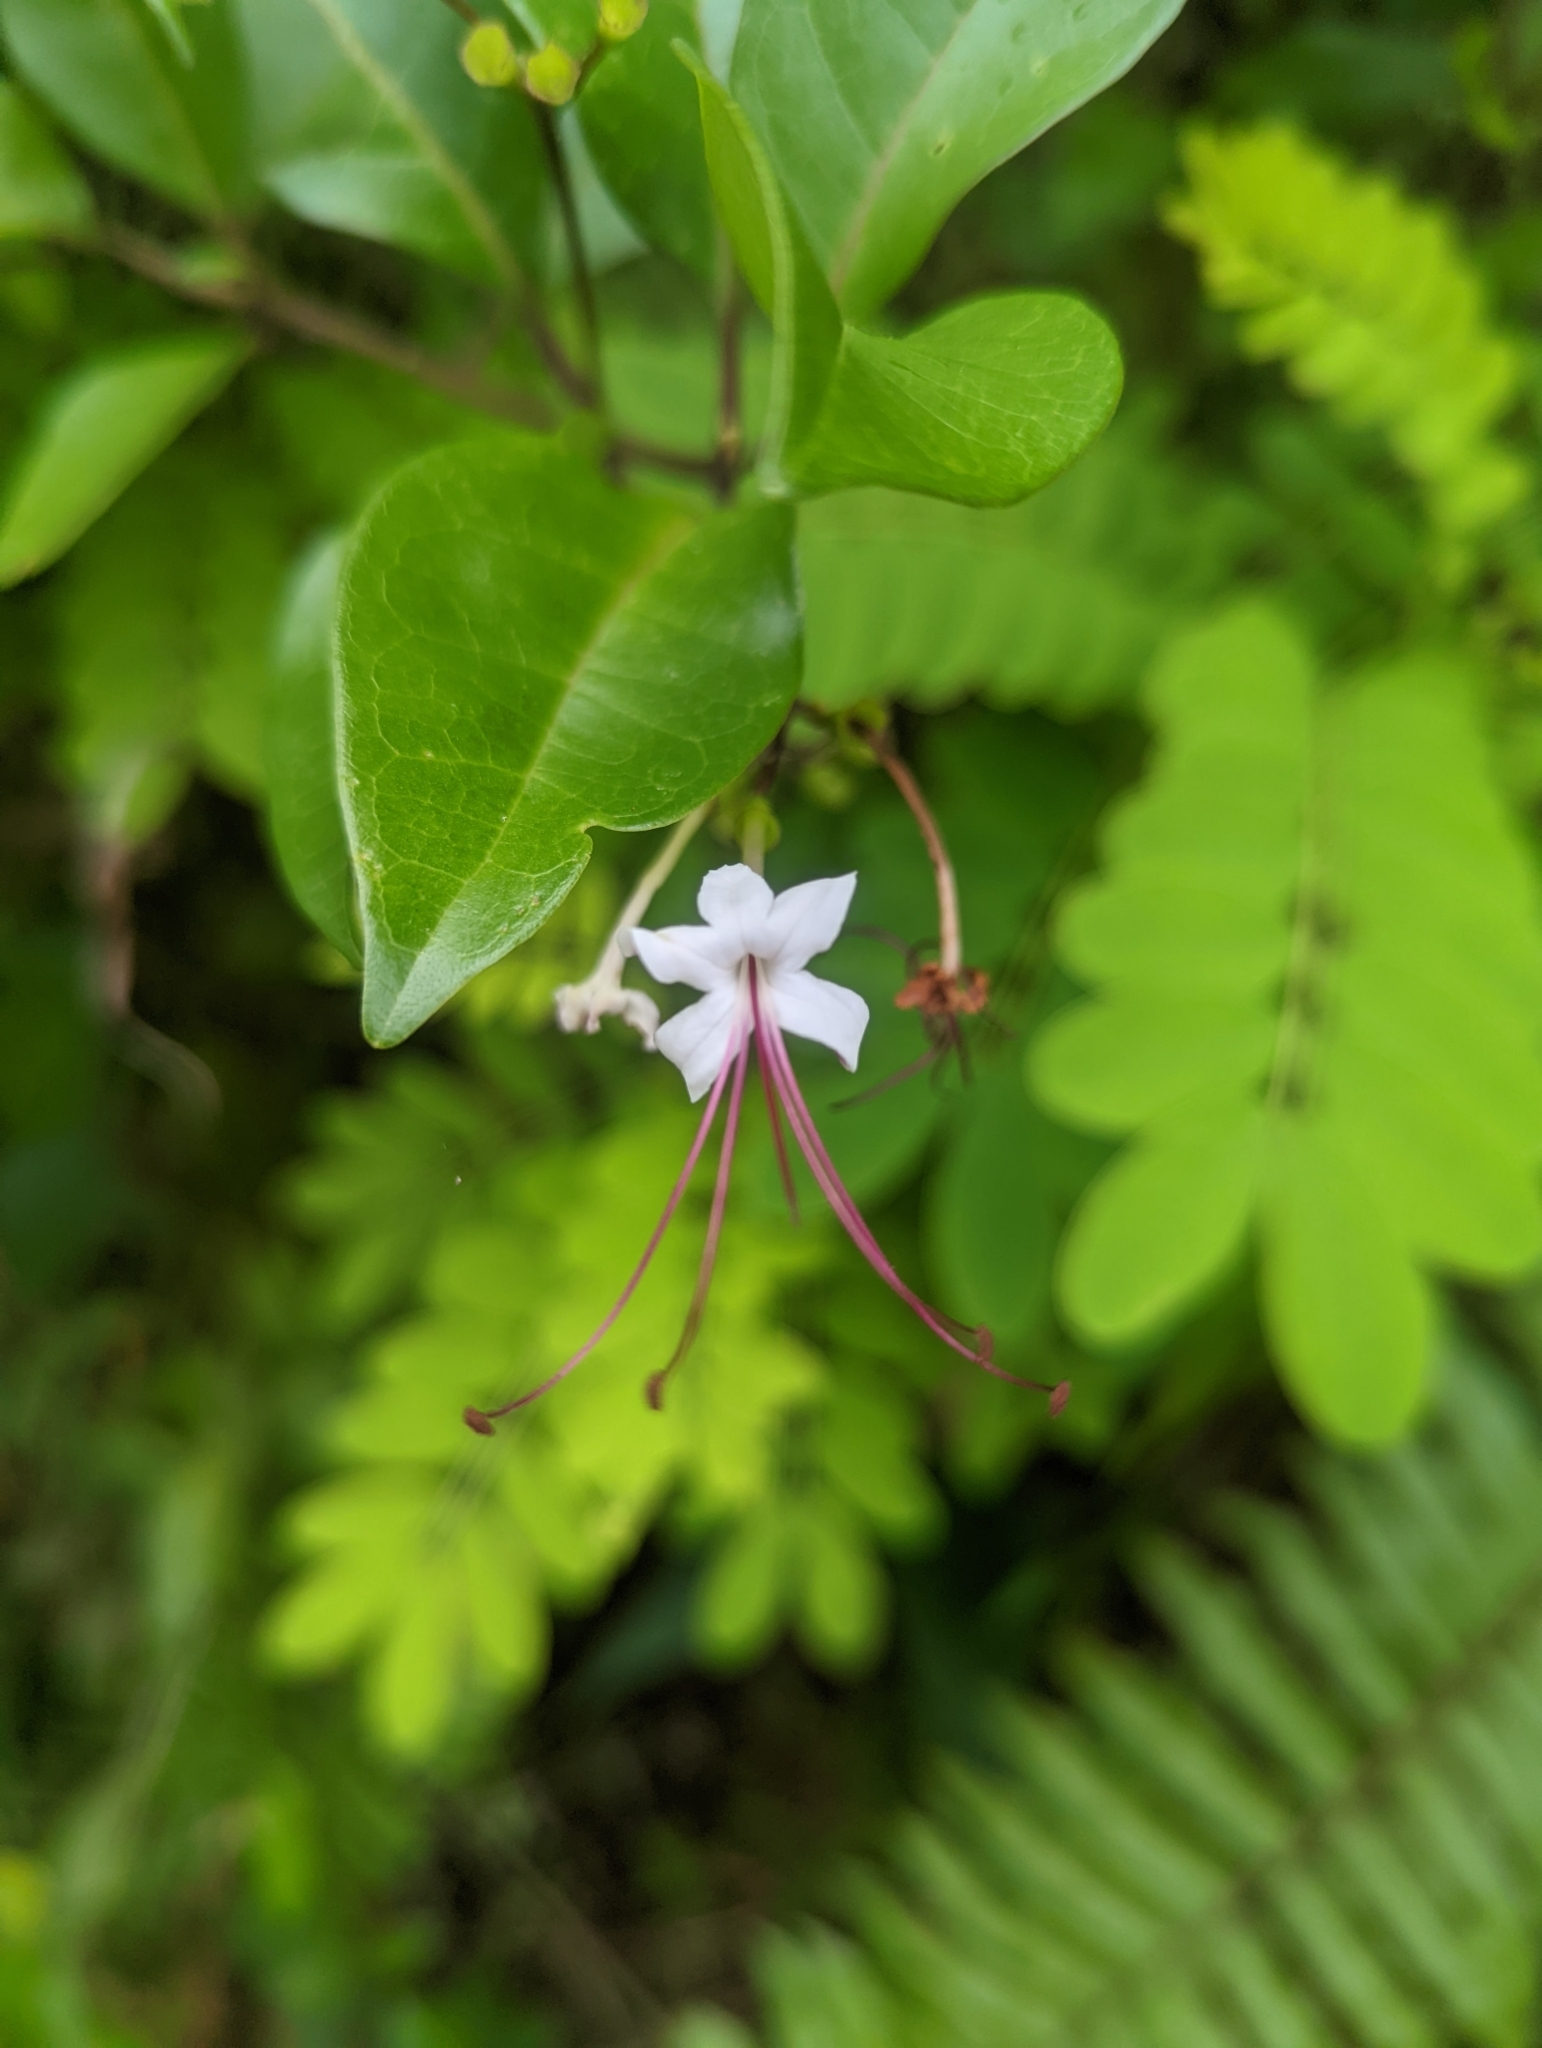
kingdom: Plantae
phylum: Tracheophyta
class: Magnoliopsida
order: Lamiales
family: Lamiaceae
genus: Volkameria
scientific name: Volkameria inermis
